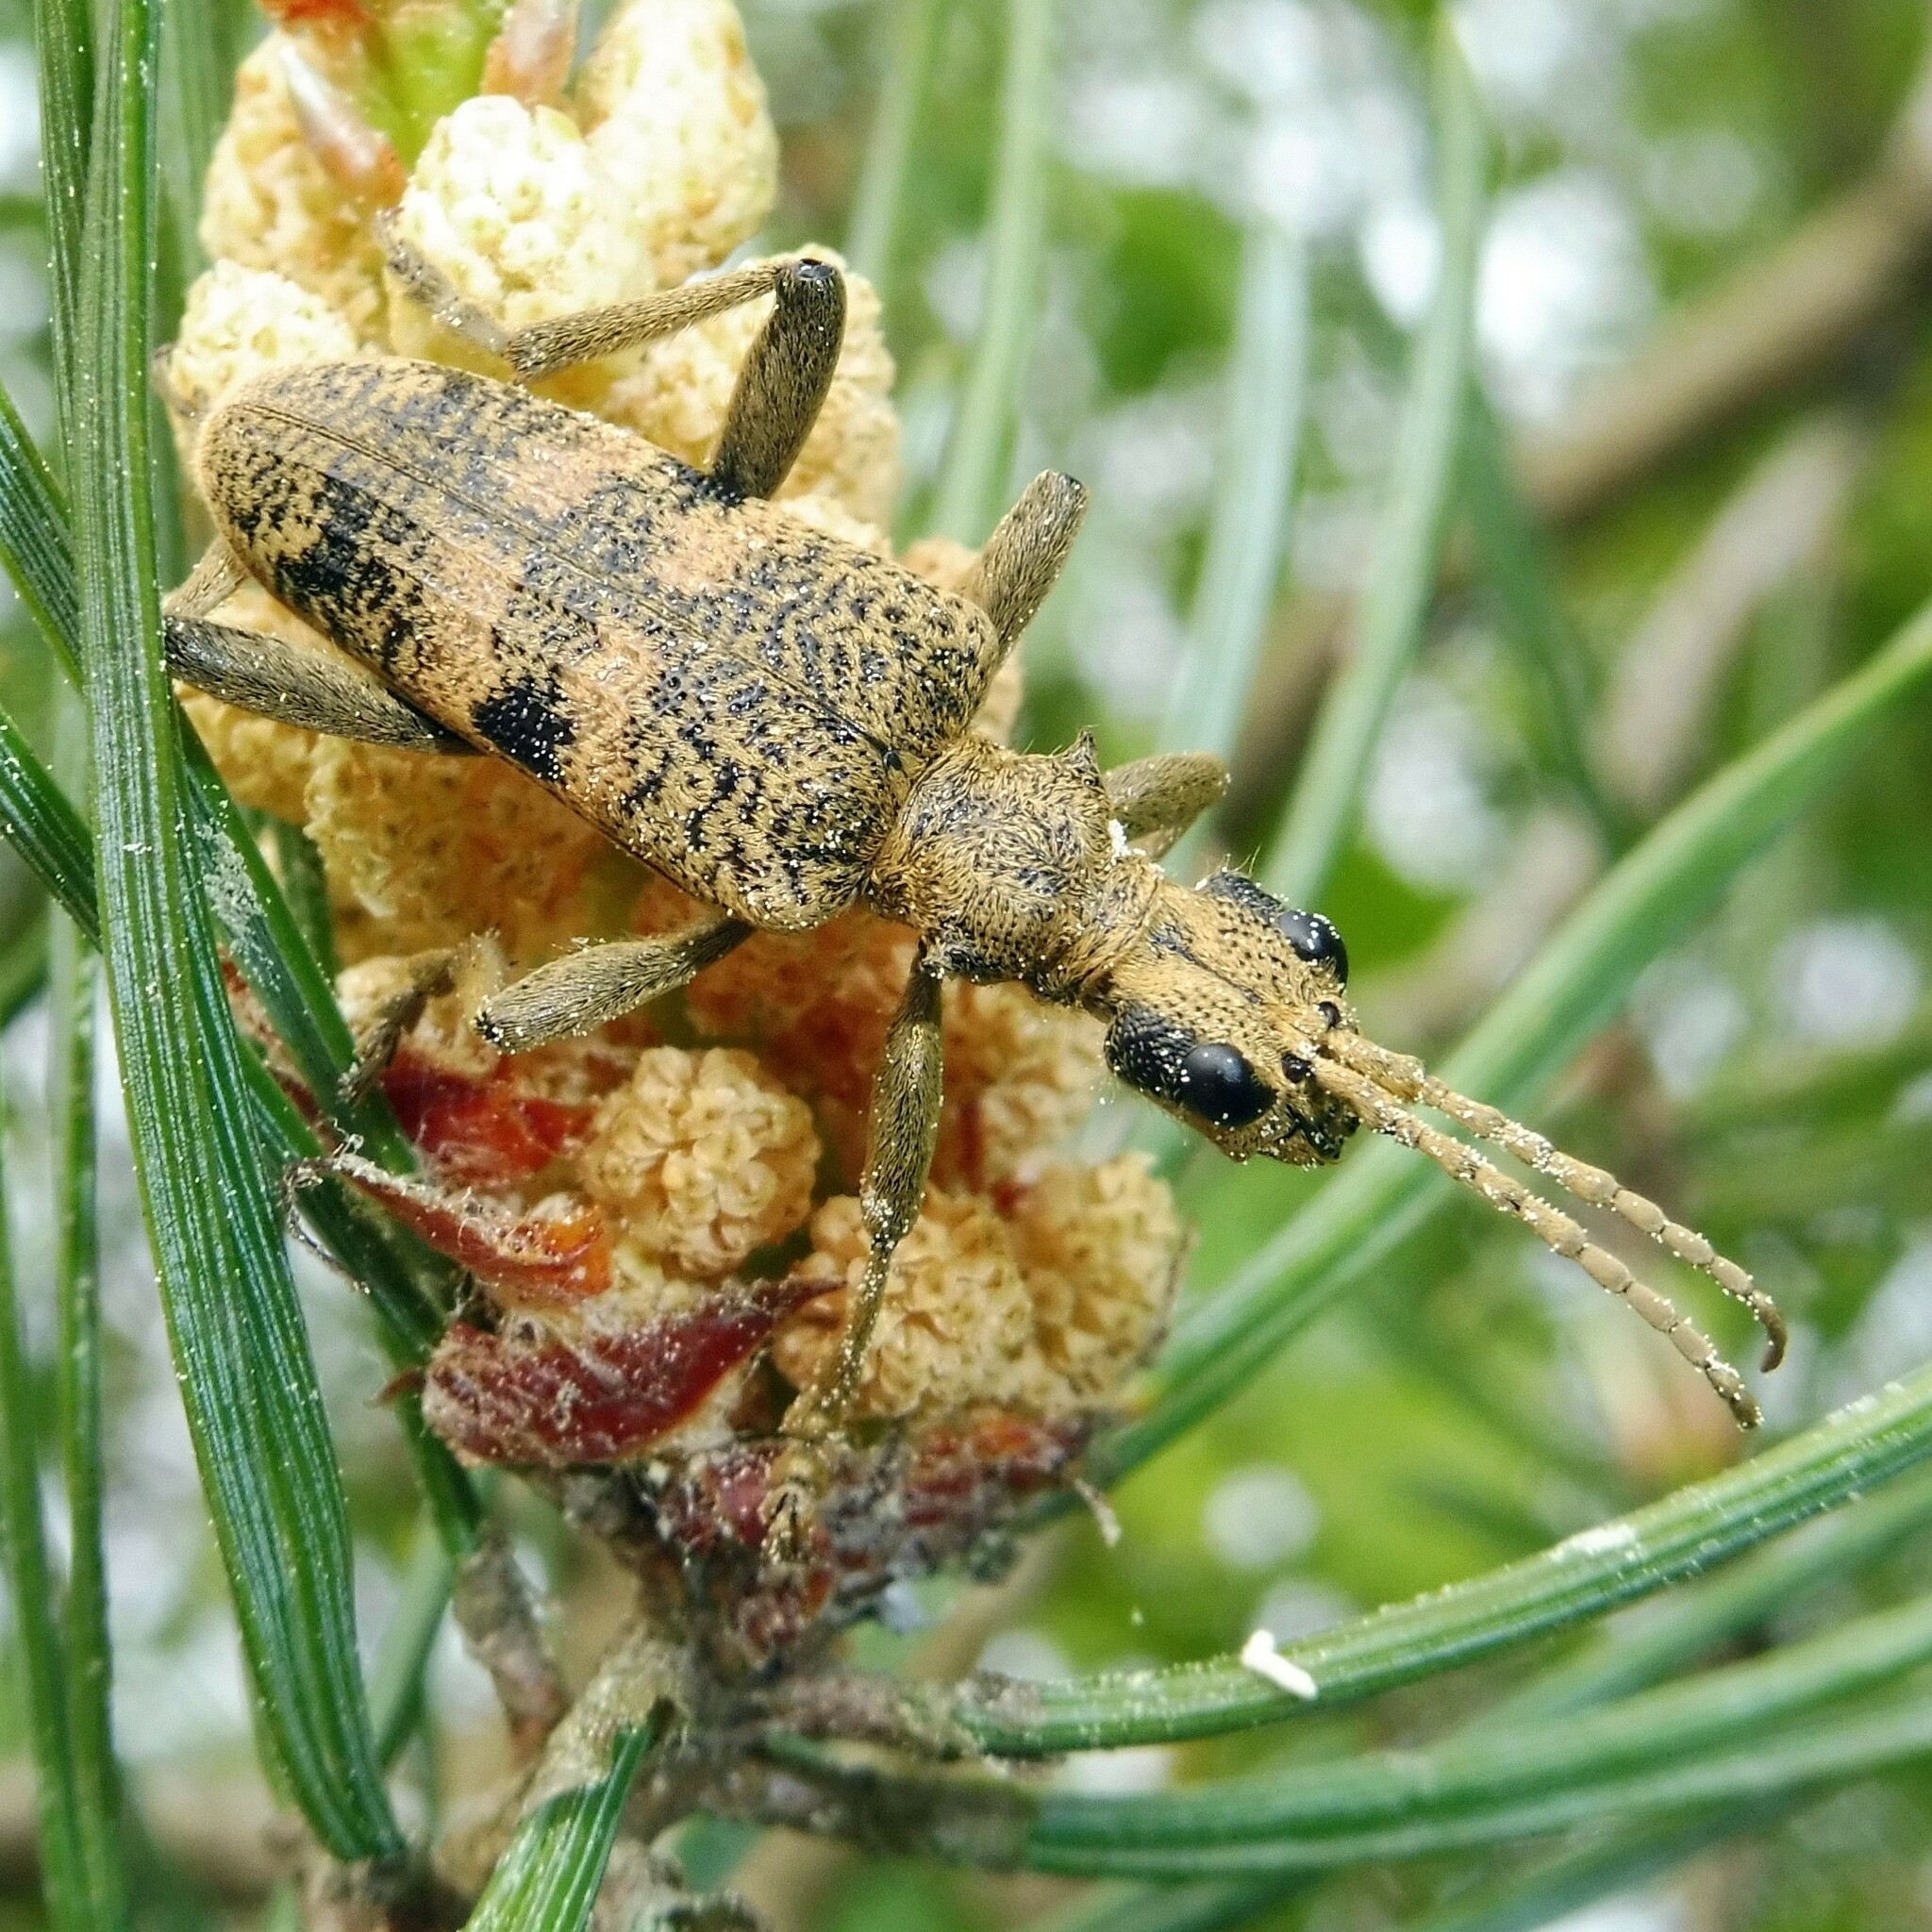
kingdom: Animalia
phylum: Arthropoda
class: Insecta
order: Coleoptera
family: Cerambycidae
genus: Rhagium
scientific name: Rhagium mordax
